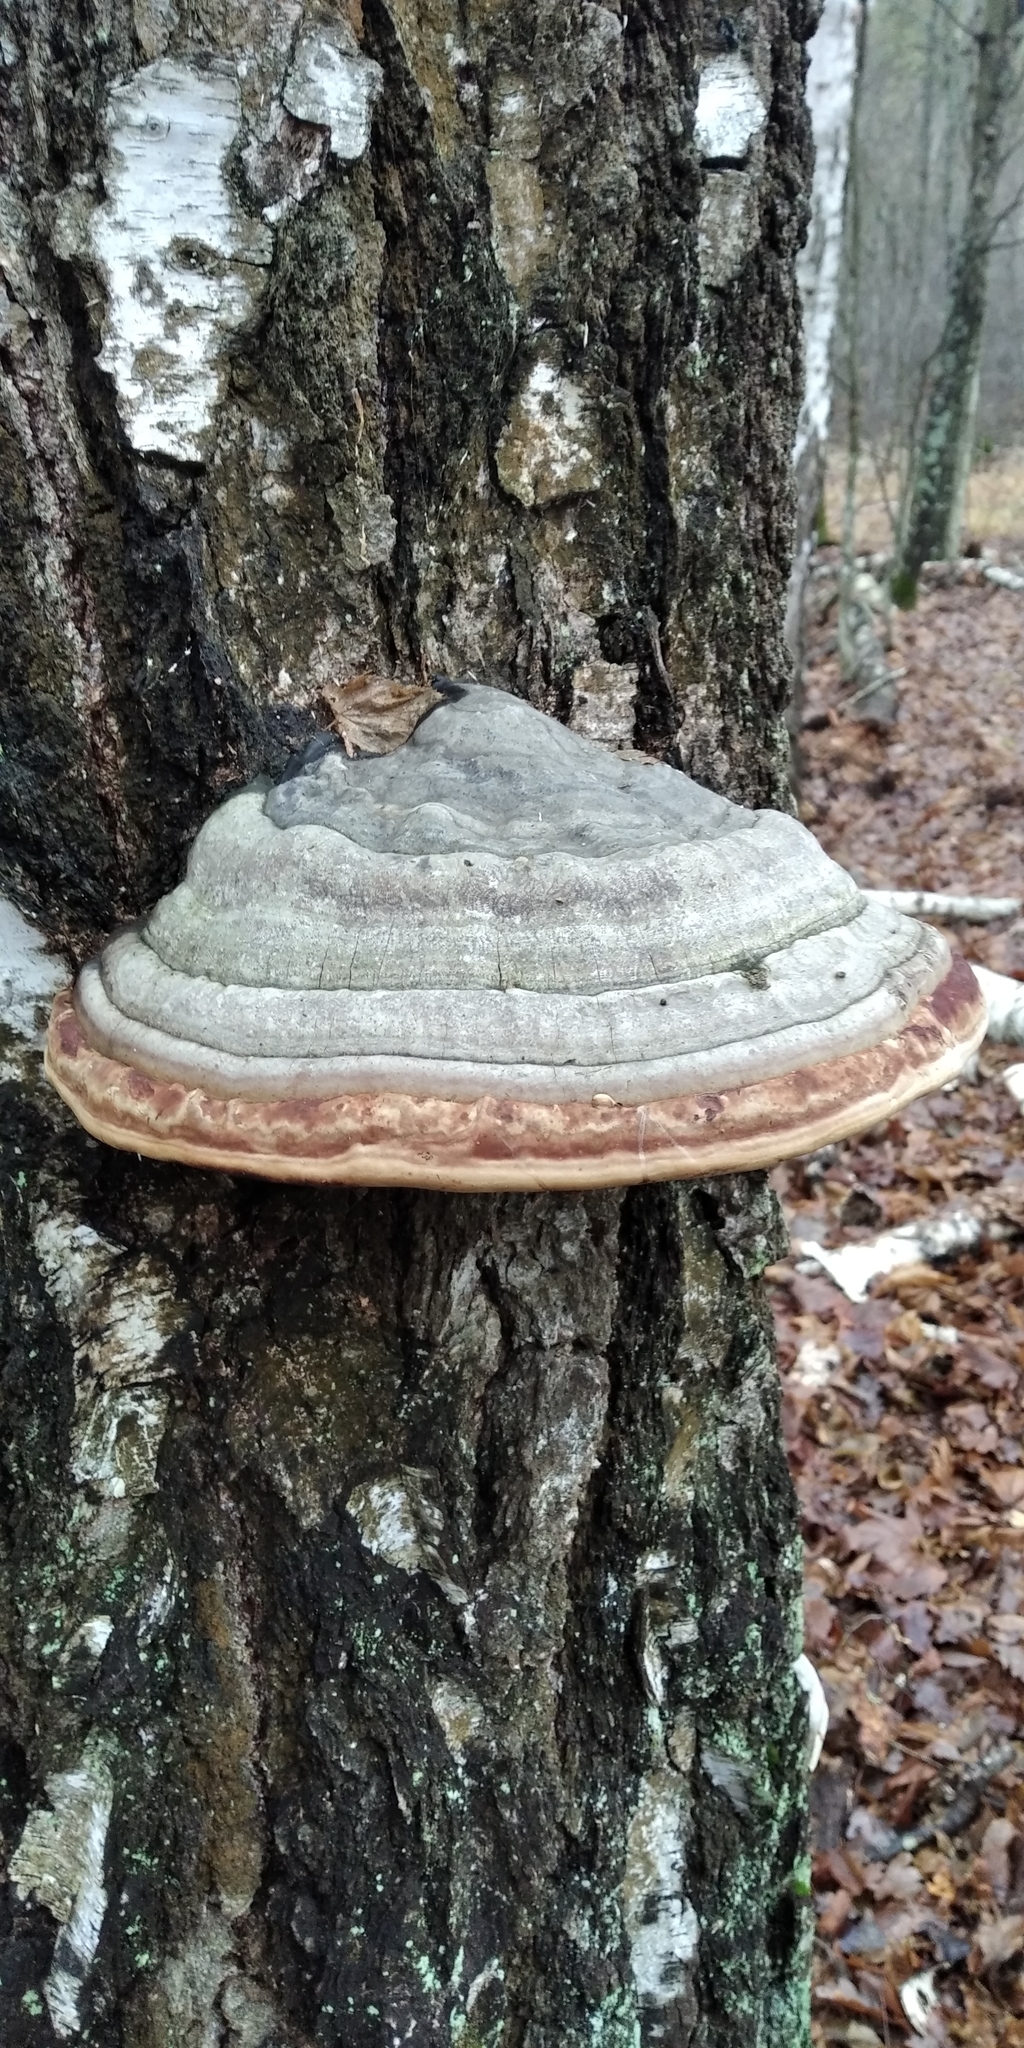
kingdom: Fungi
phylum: Basidiomycota
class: Agaricomycetes
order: Polyporales
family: Polyporaceae
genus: Fomes
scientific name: Fomes fomentarius
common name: Hoof fungus
